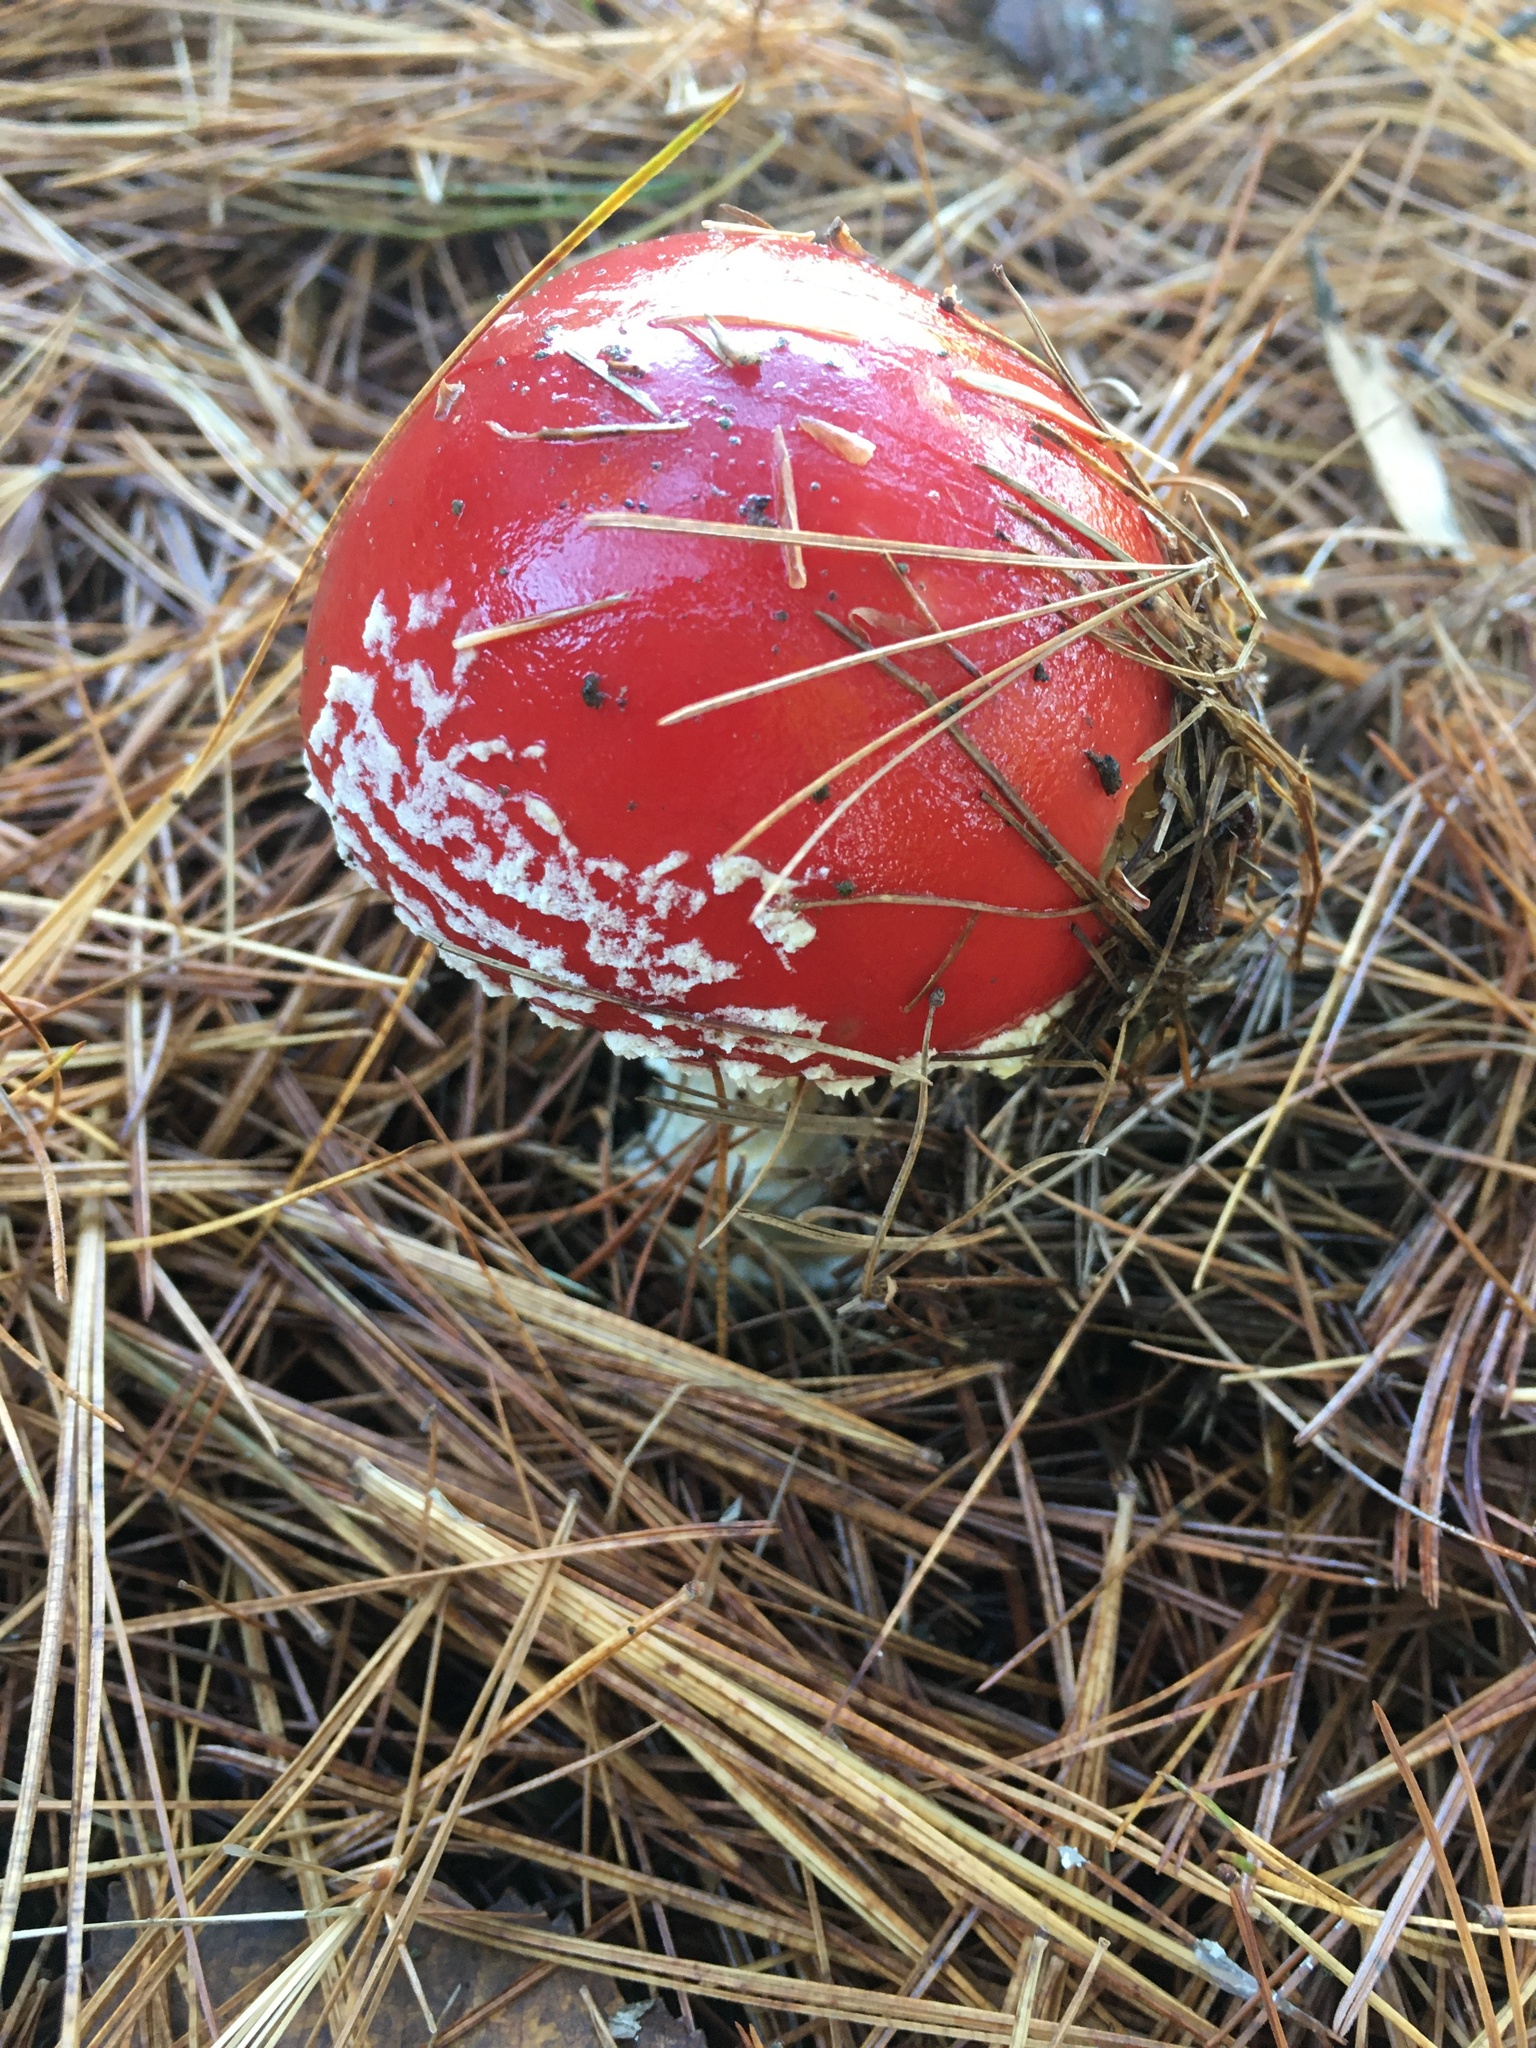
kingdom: Fungi
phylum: Basidiomycota
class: Agaricomycetes
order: Agaricales
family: Amanitaceae
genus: Amanita
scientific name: Amanita muscaria
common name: Fly agaric
